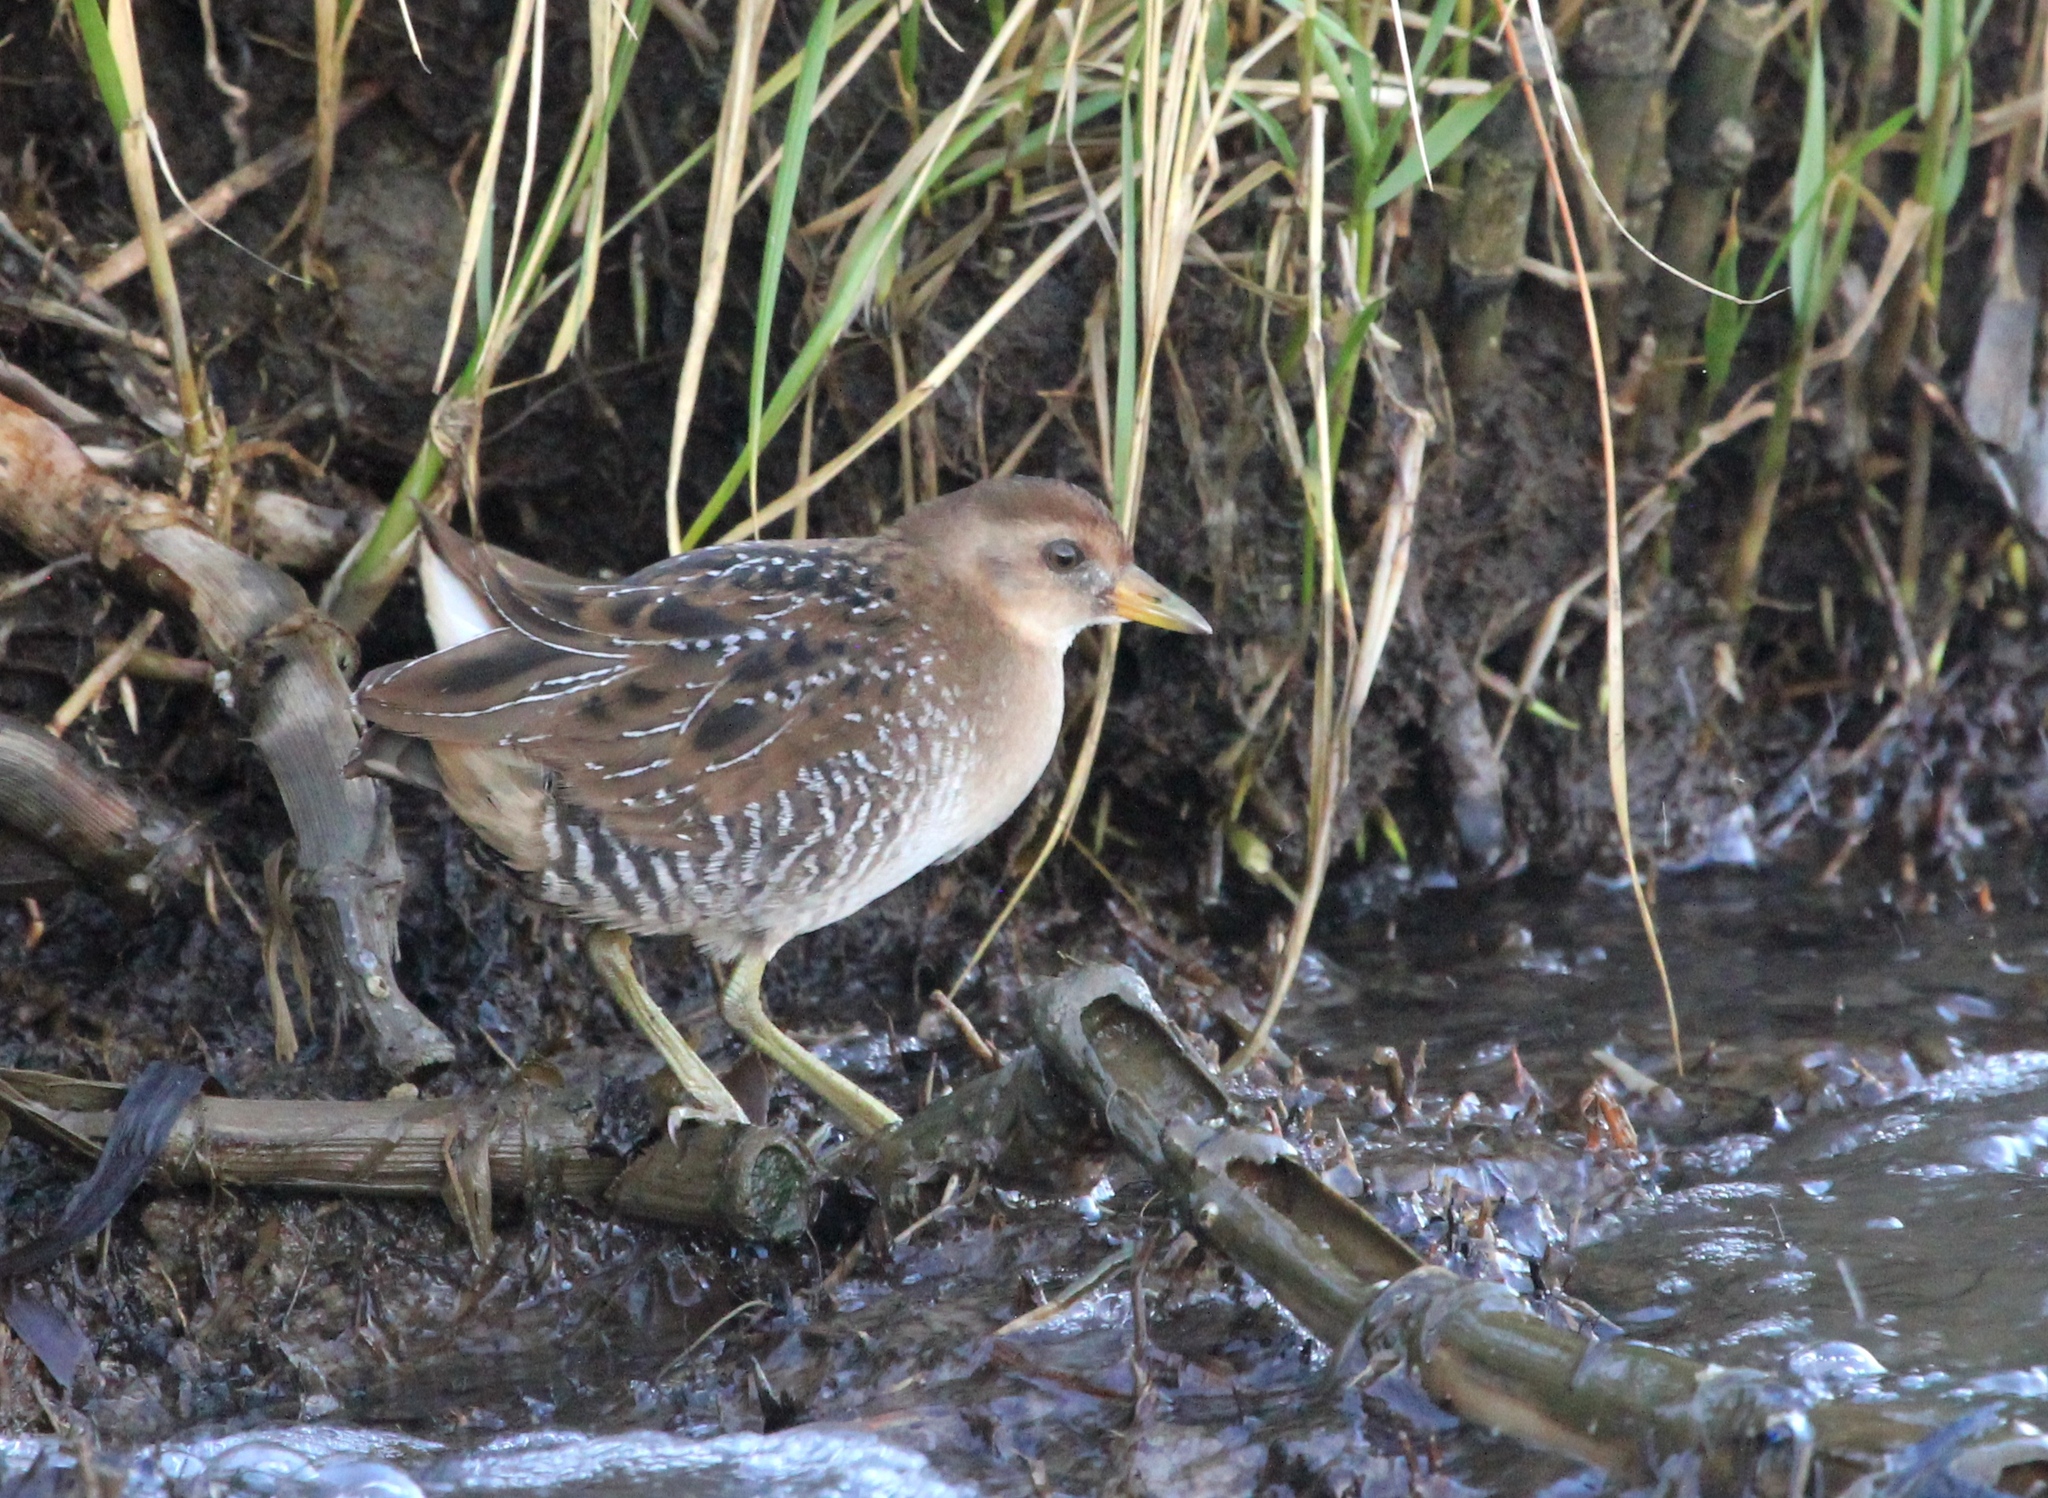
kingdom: Animalia
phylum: Chordata
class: Aves
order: Gruiformes
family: Rallidae
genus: Porzana
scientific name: Porzana carolina
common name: Sora
